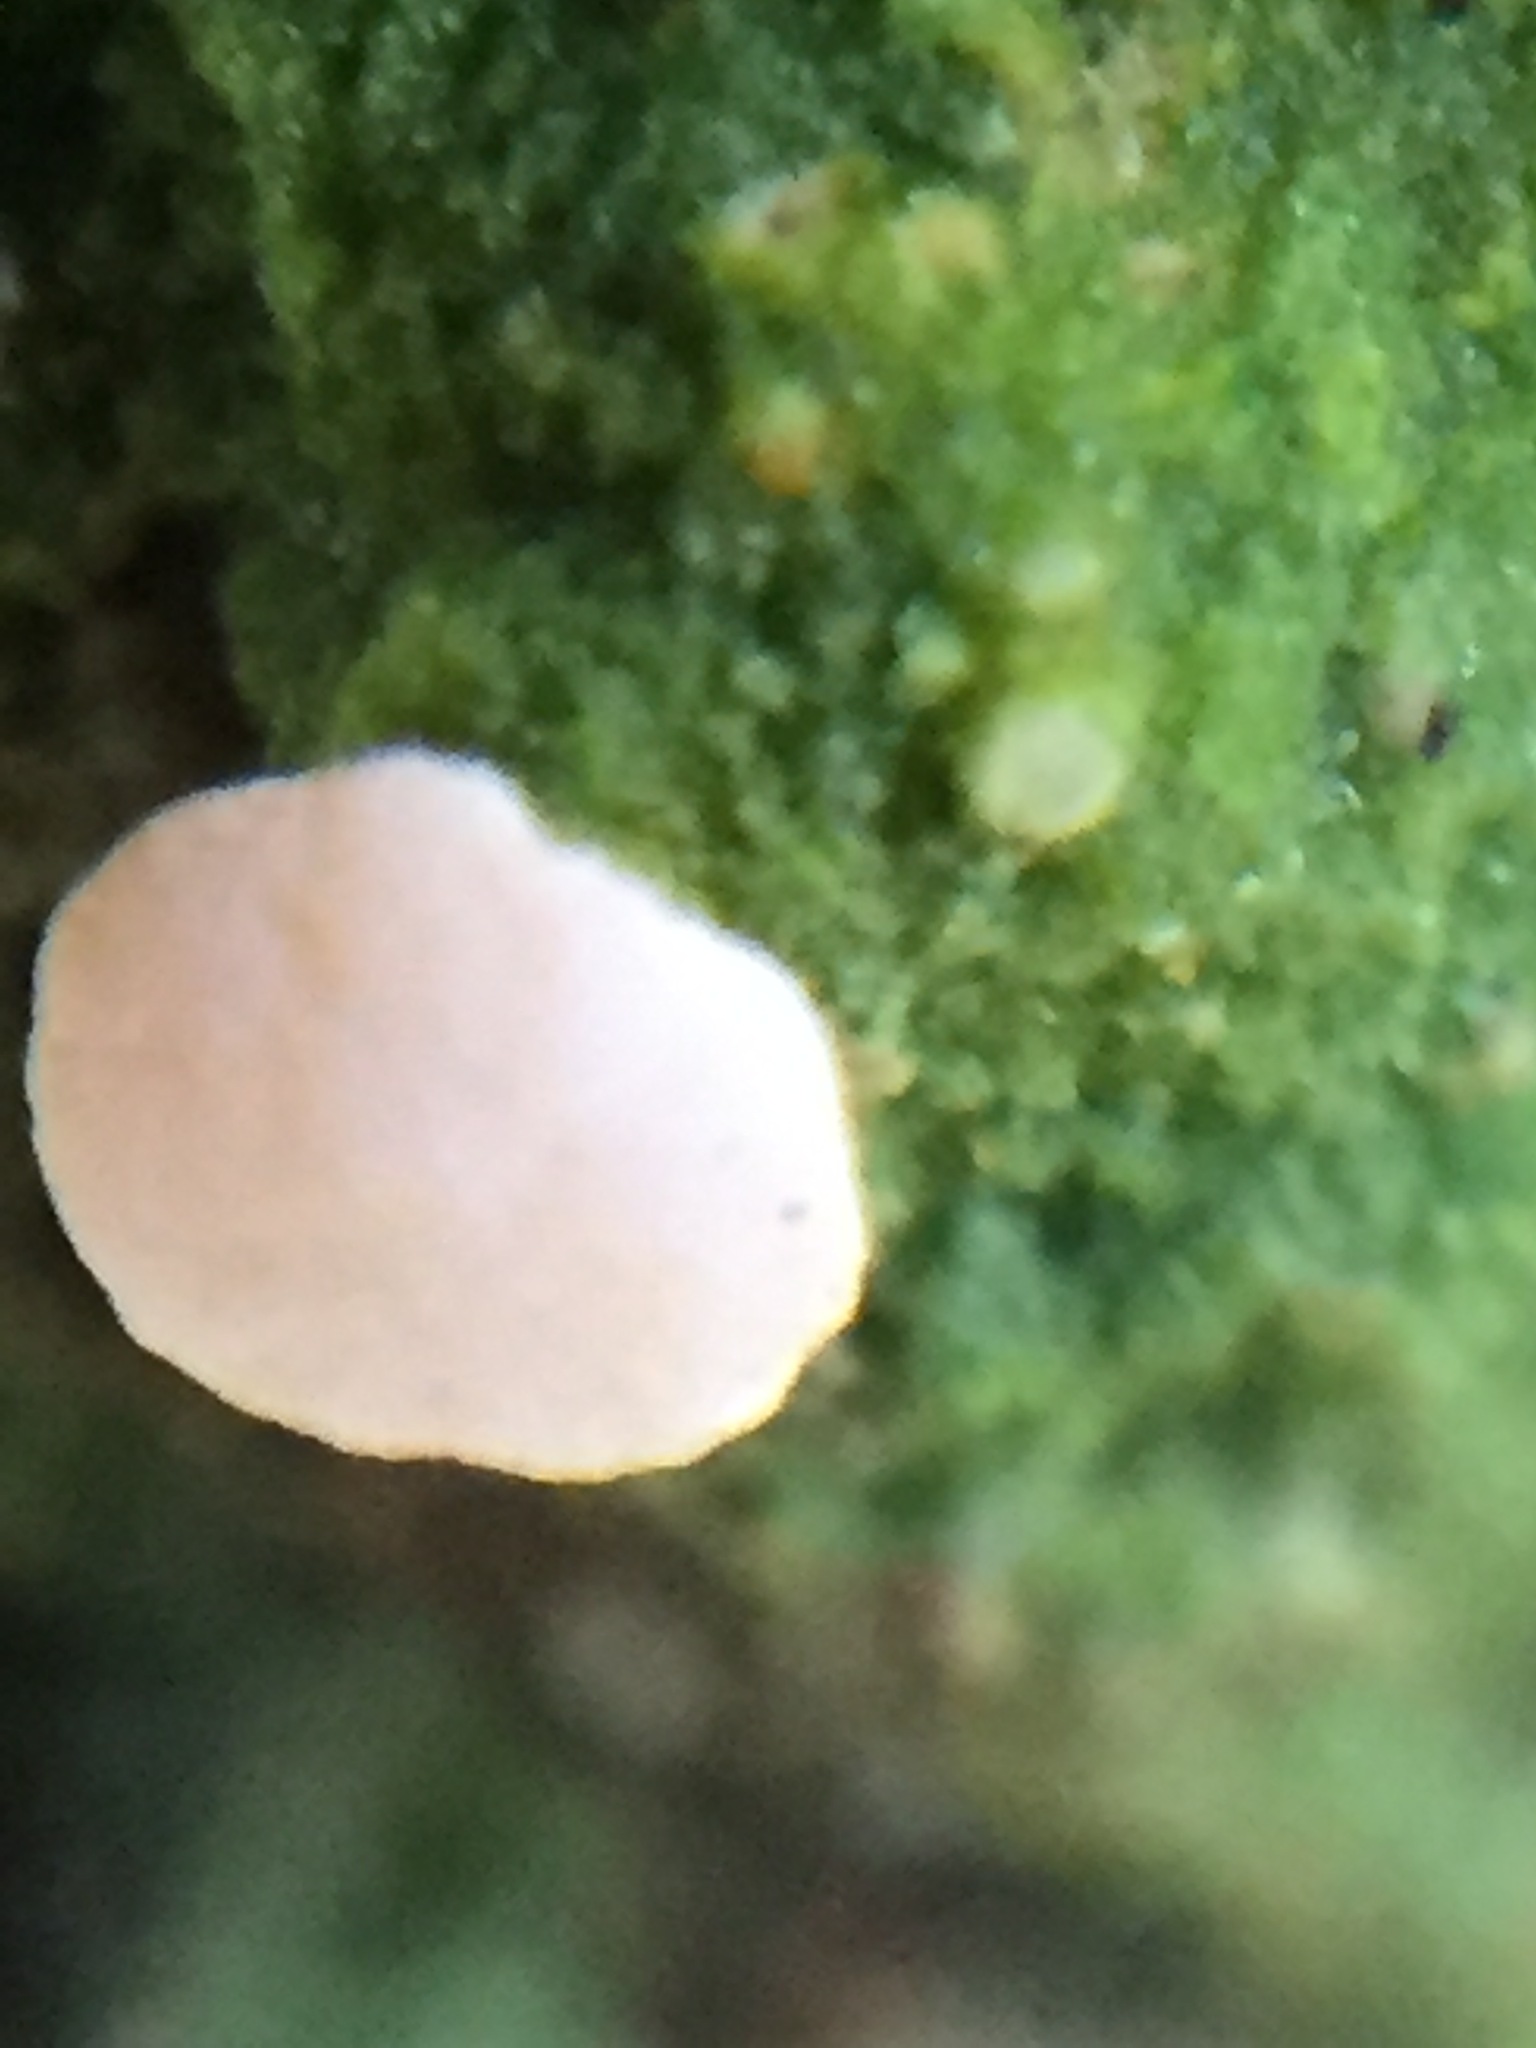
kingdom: Fungi
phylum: Ascomycota
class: Lecanoromycetes
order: Pertusariales
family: Icmadophilaceae
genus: Dibaeis
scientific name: Dibaeis absoluta
